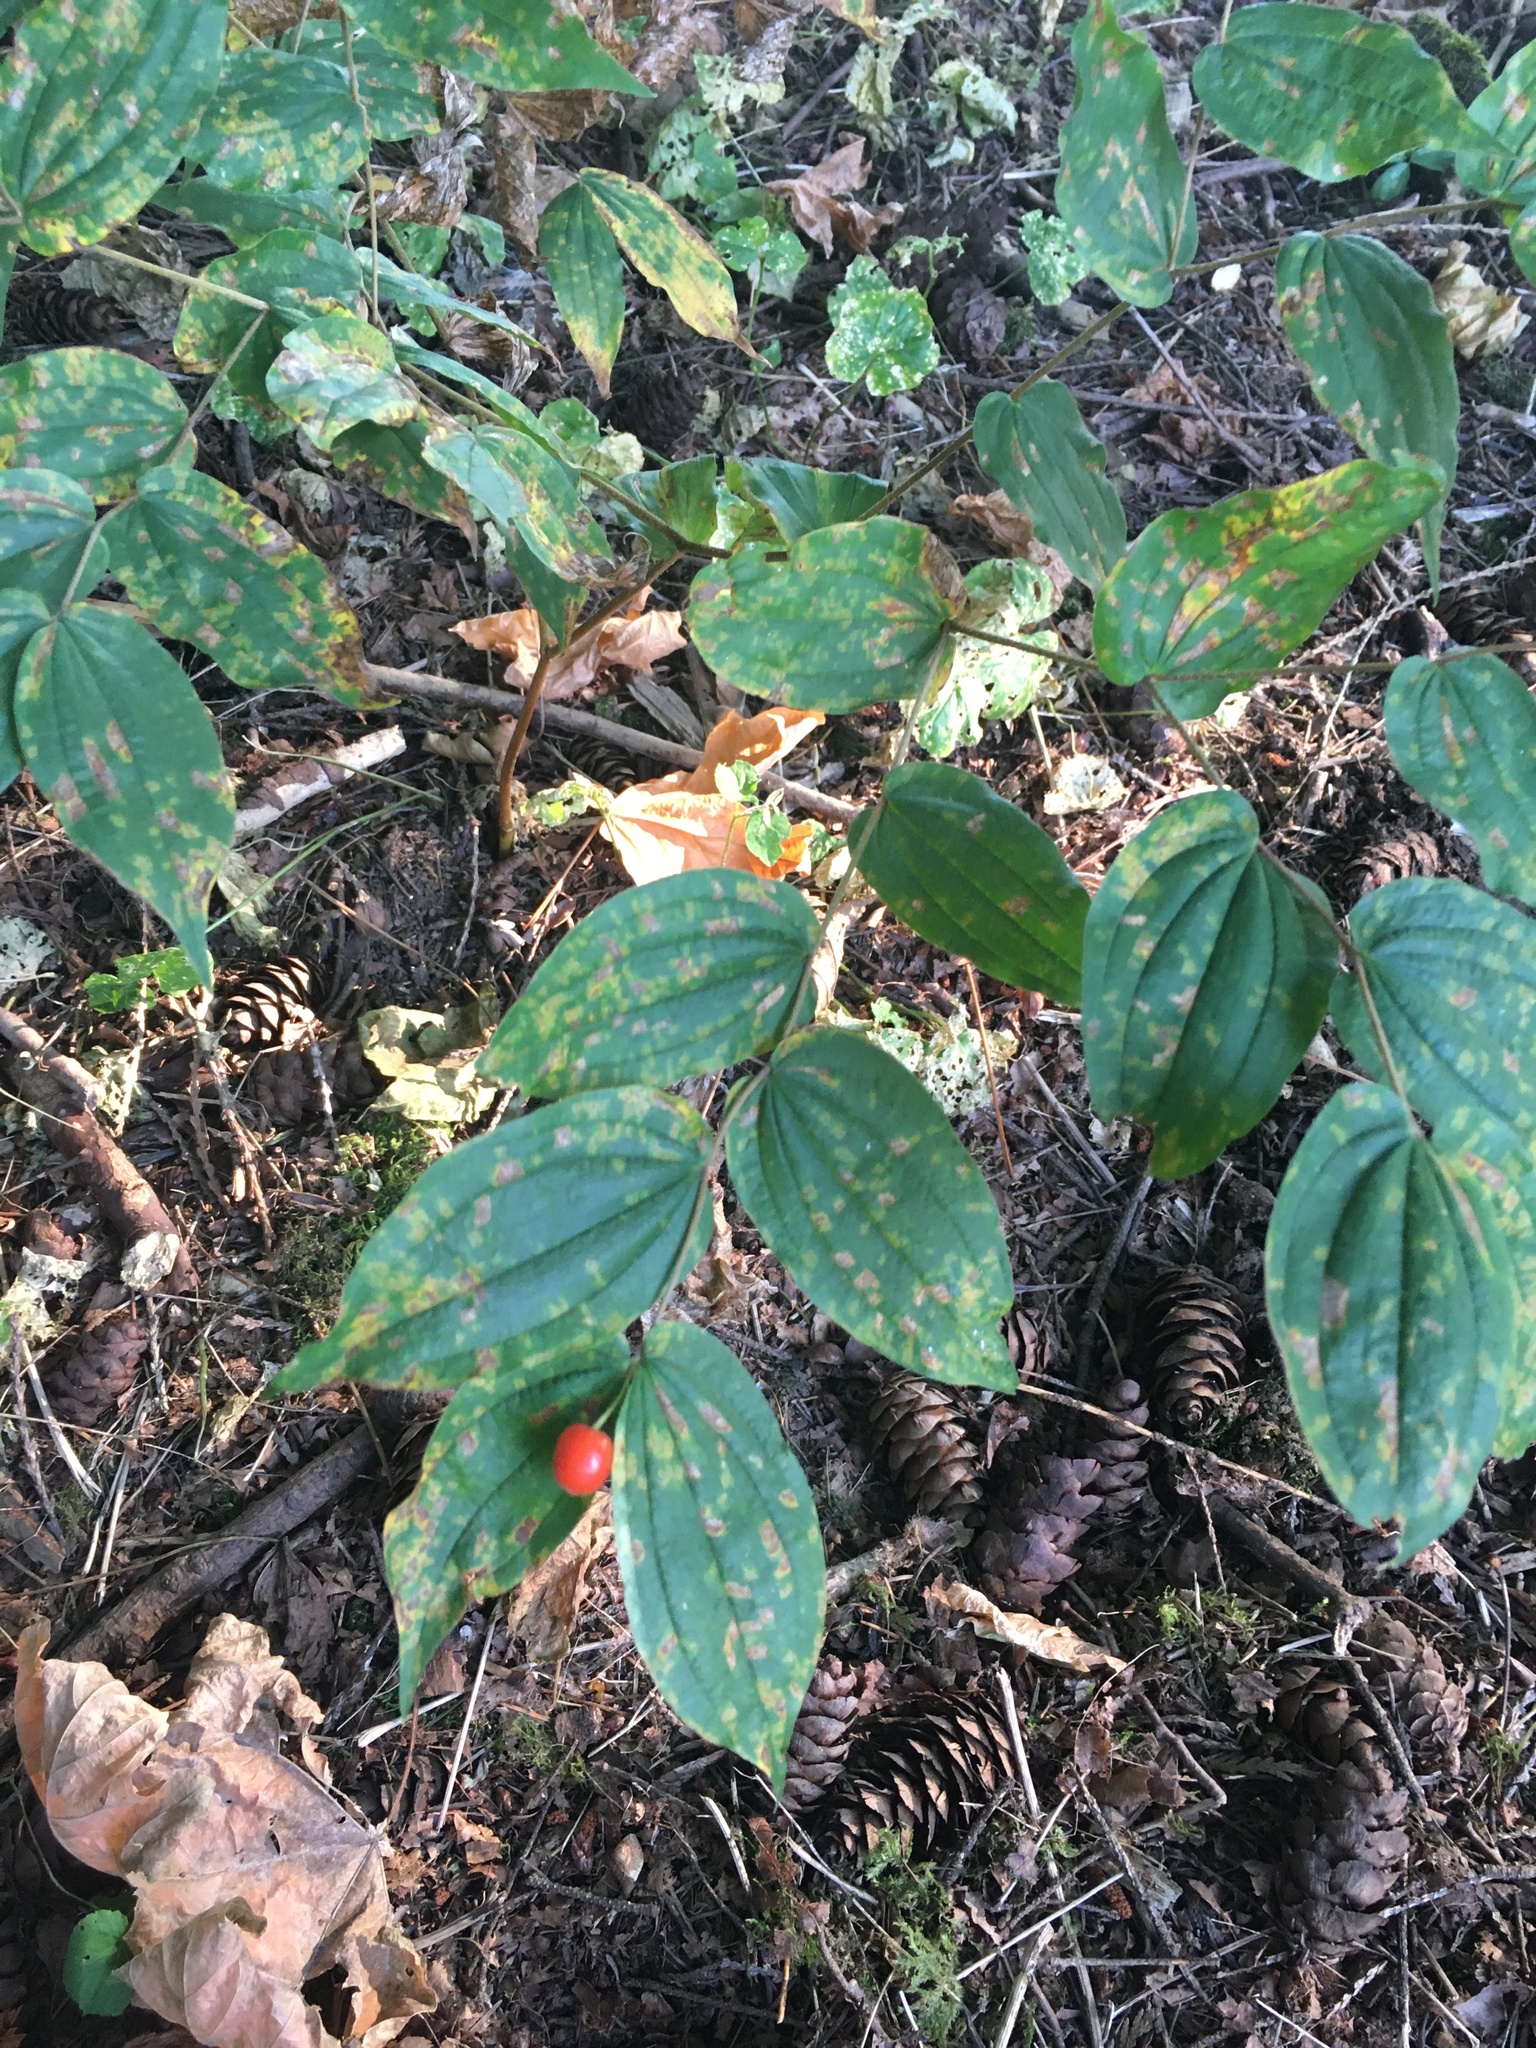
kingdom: Plantae
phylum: Tracheophyta
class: Liliopsida
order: Liliales
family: Liliaceae
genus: Prosartes
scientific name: Prosartes hookeri
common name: Fairy-bells
